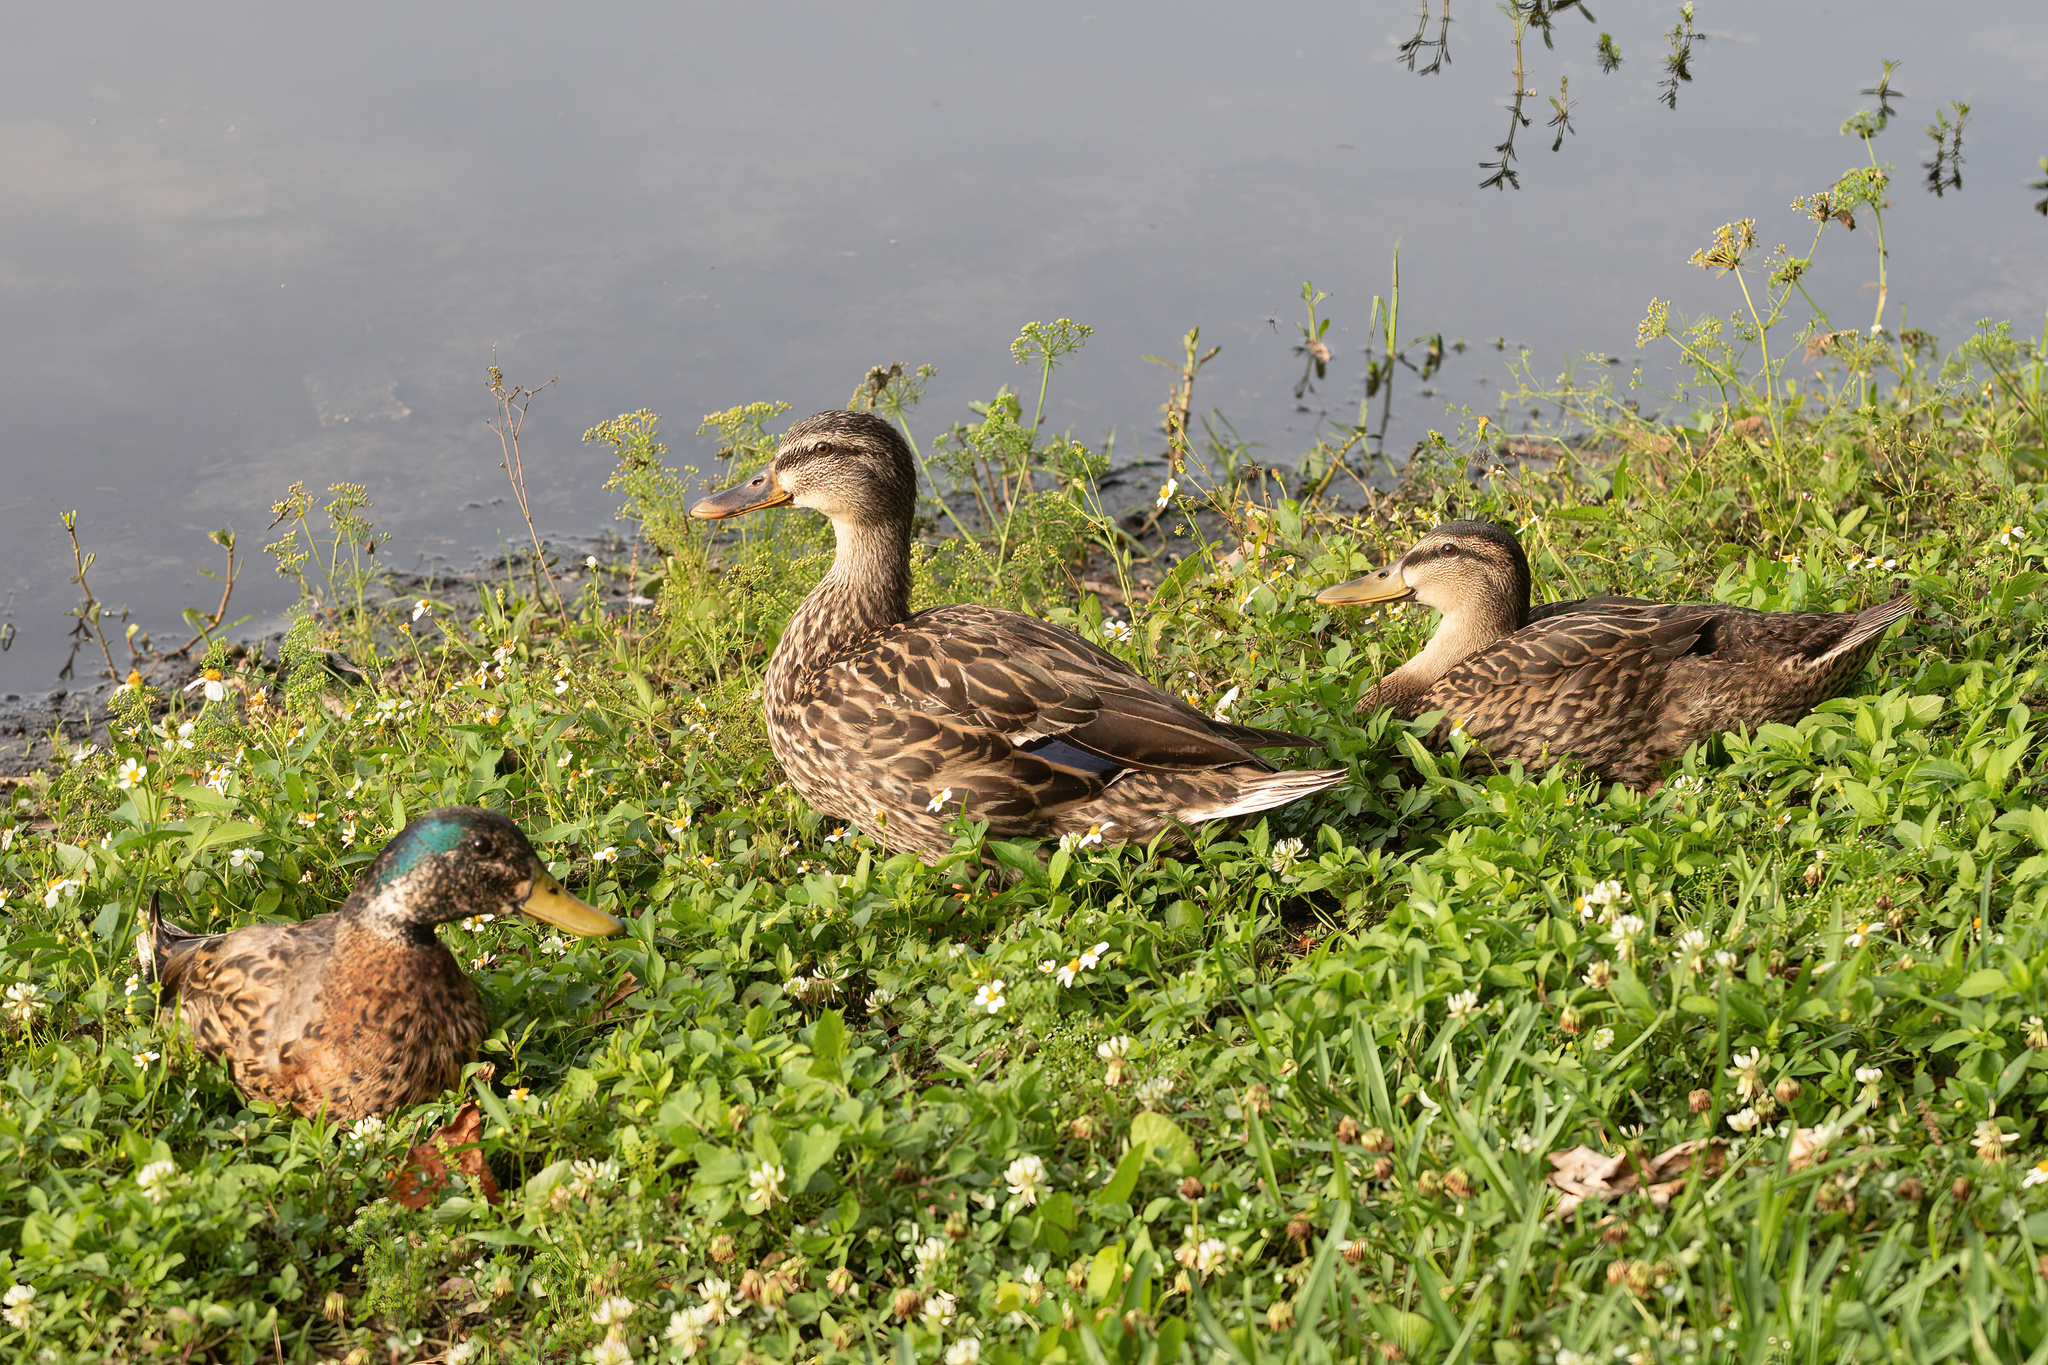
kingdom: Animalia
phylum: Chordata
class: Aves
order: Anseriformes
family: Anatidae
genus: Anas
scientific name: Anas platyrhynchos
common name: Mallard
